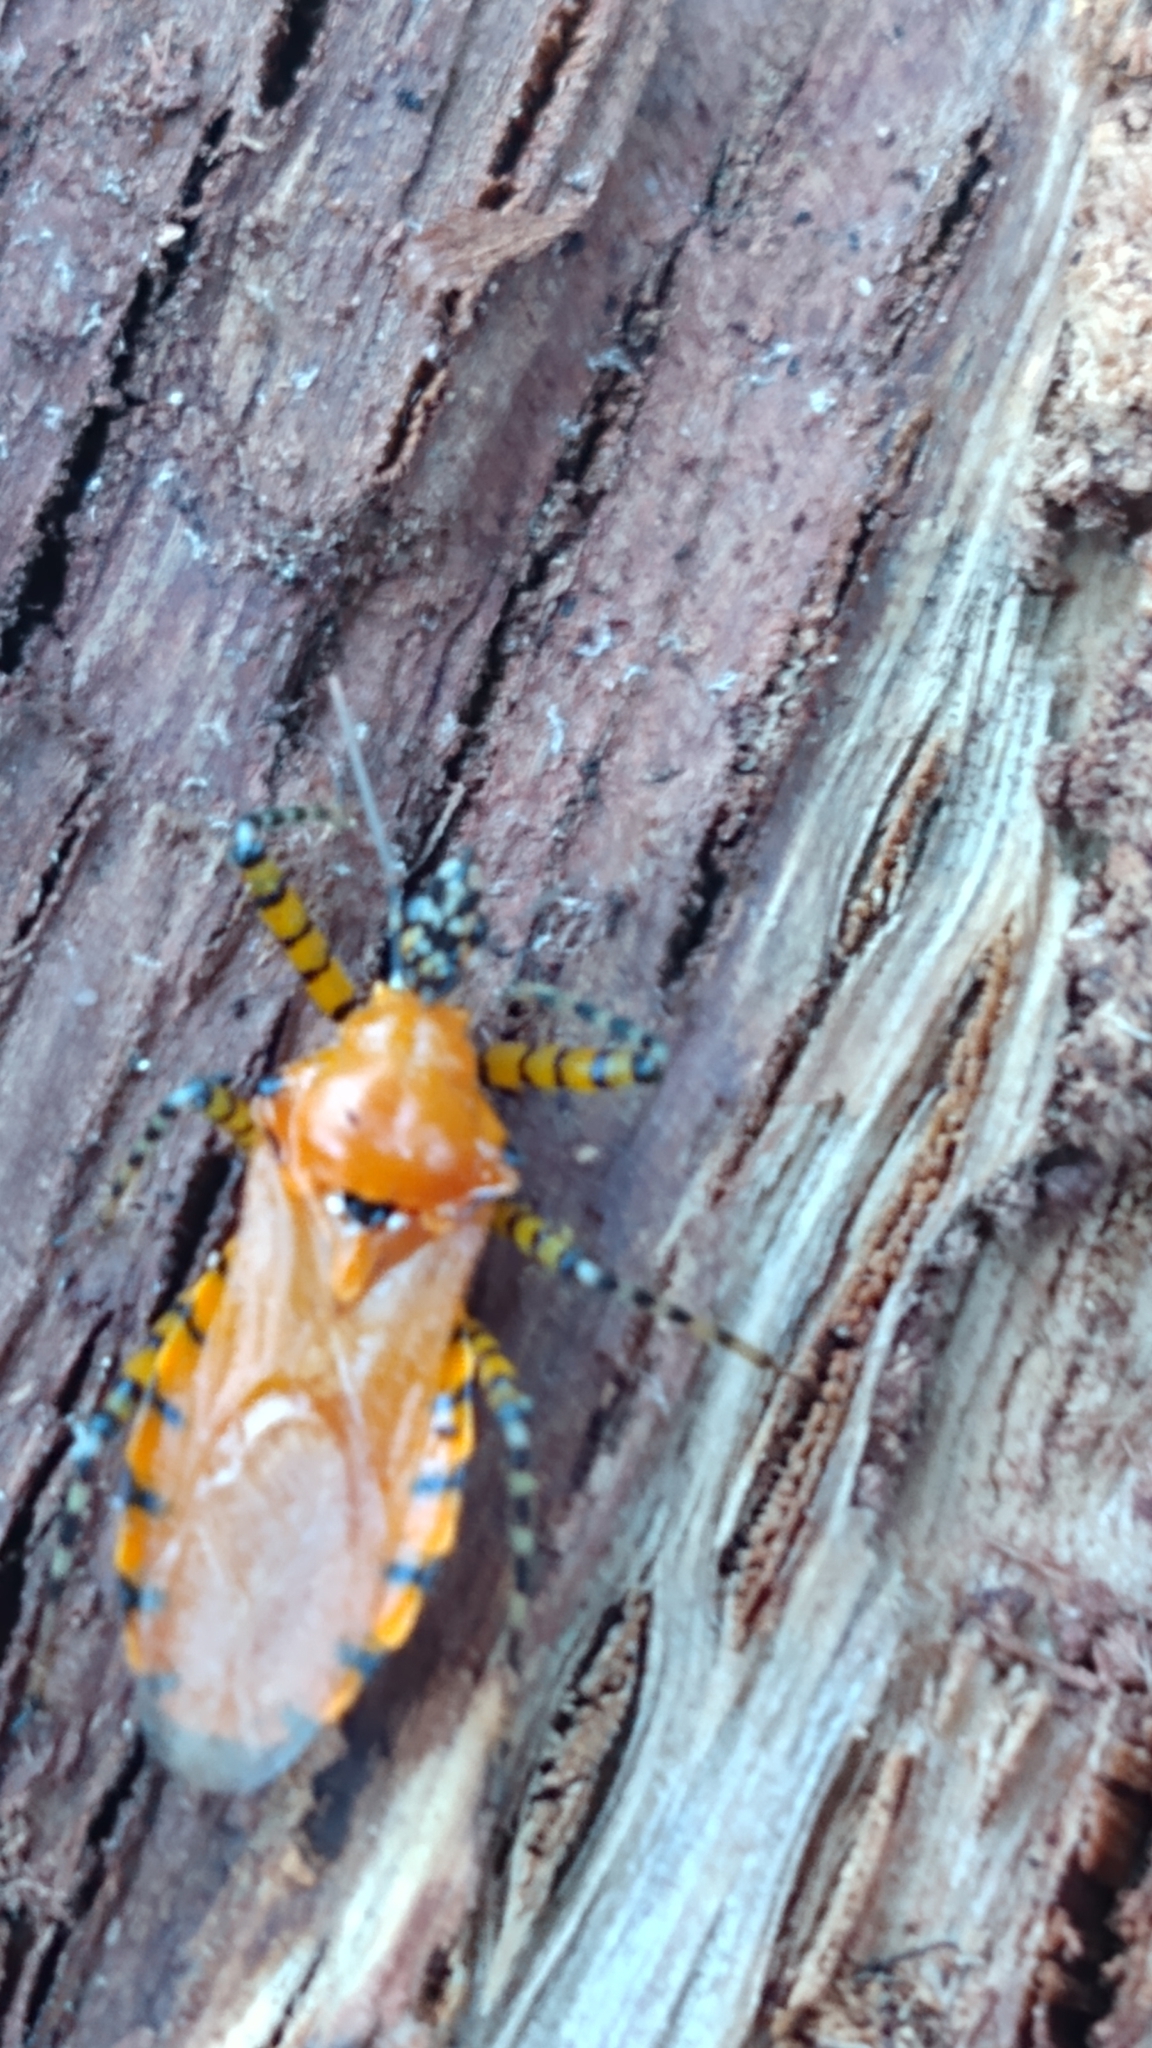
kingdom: Animalia
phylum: Arthropoda
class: Insecta
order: Hemiptera
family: Reduviidae
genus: Pselliopus
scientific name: Pselliopus barberi
